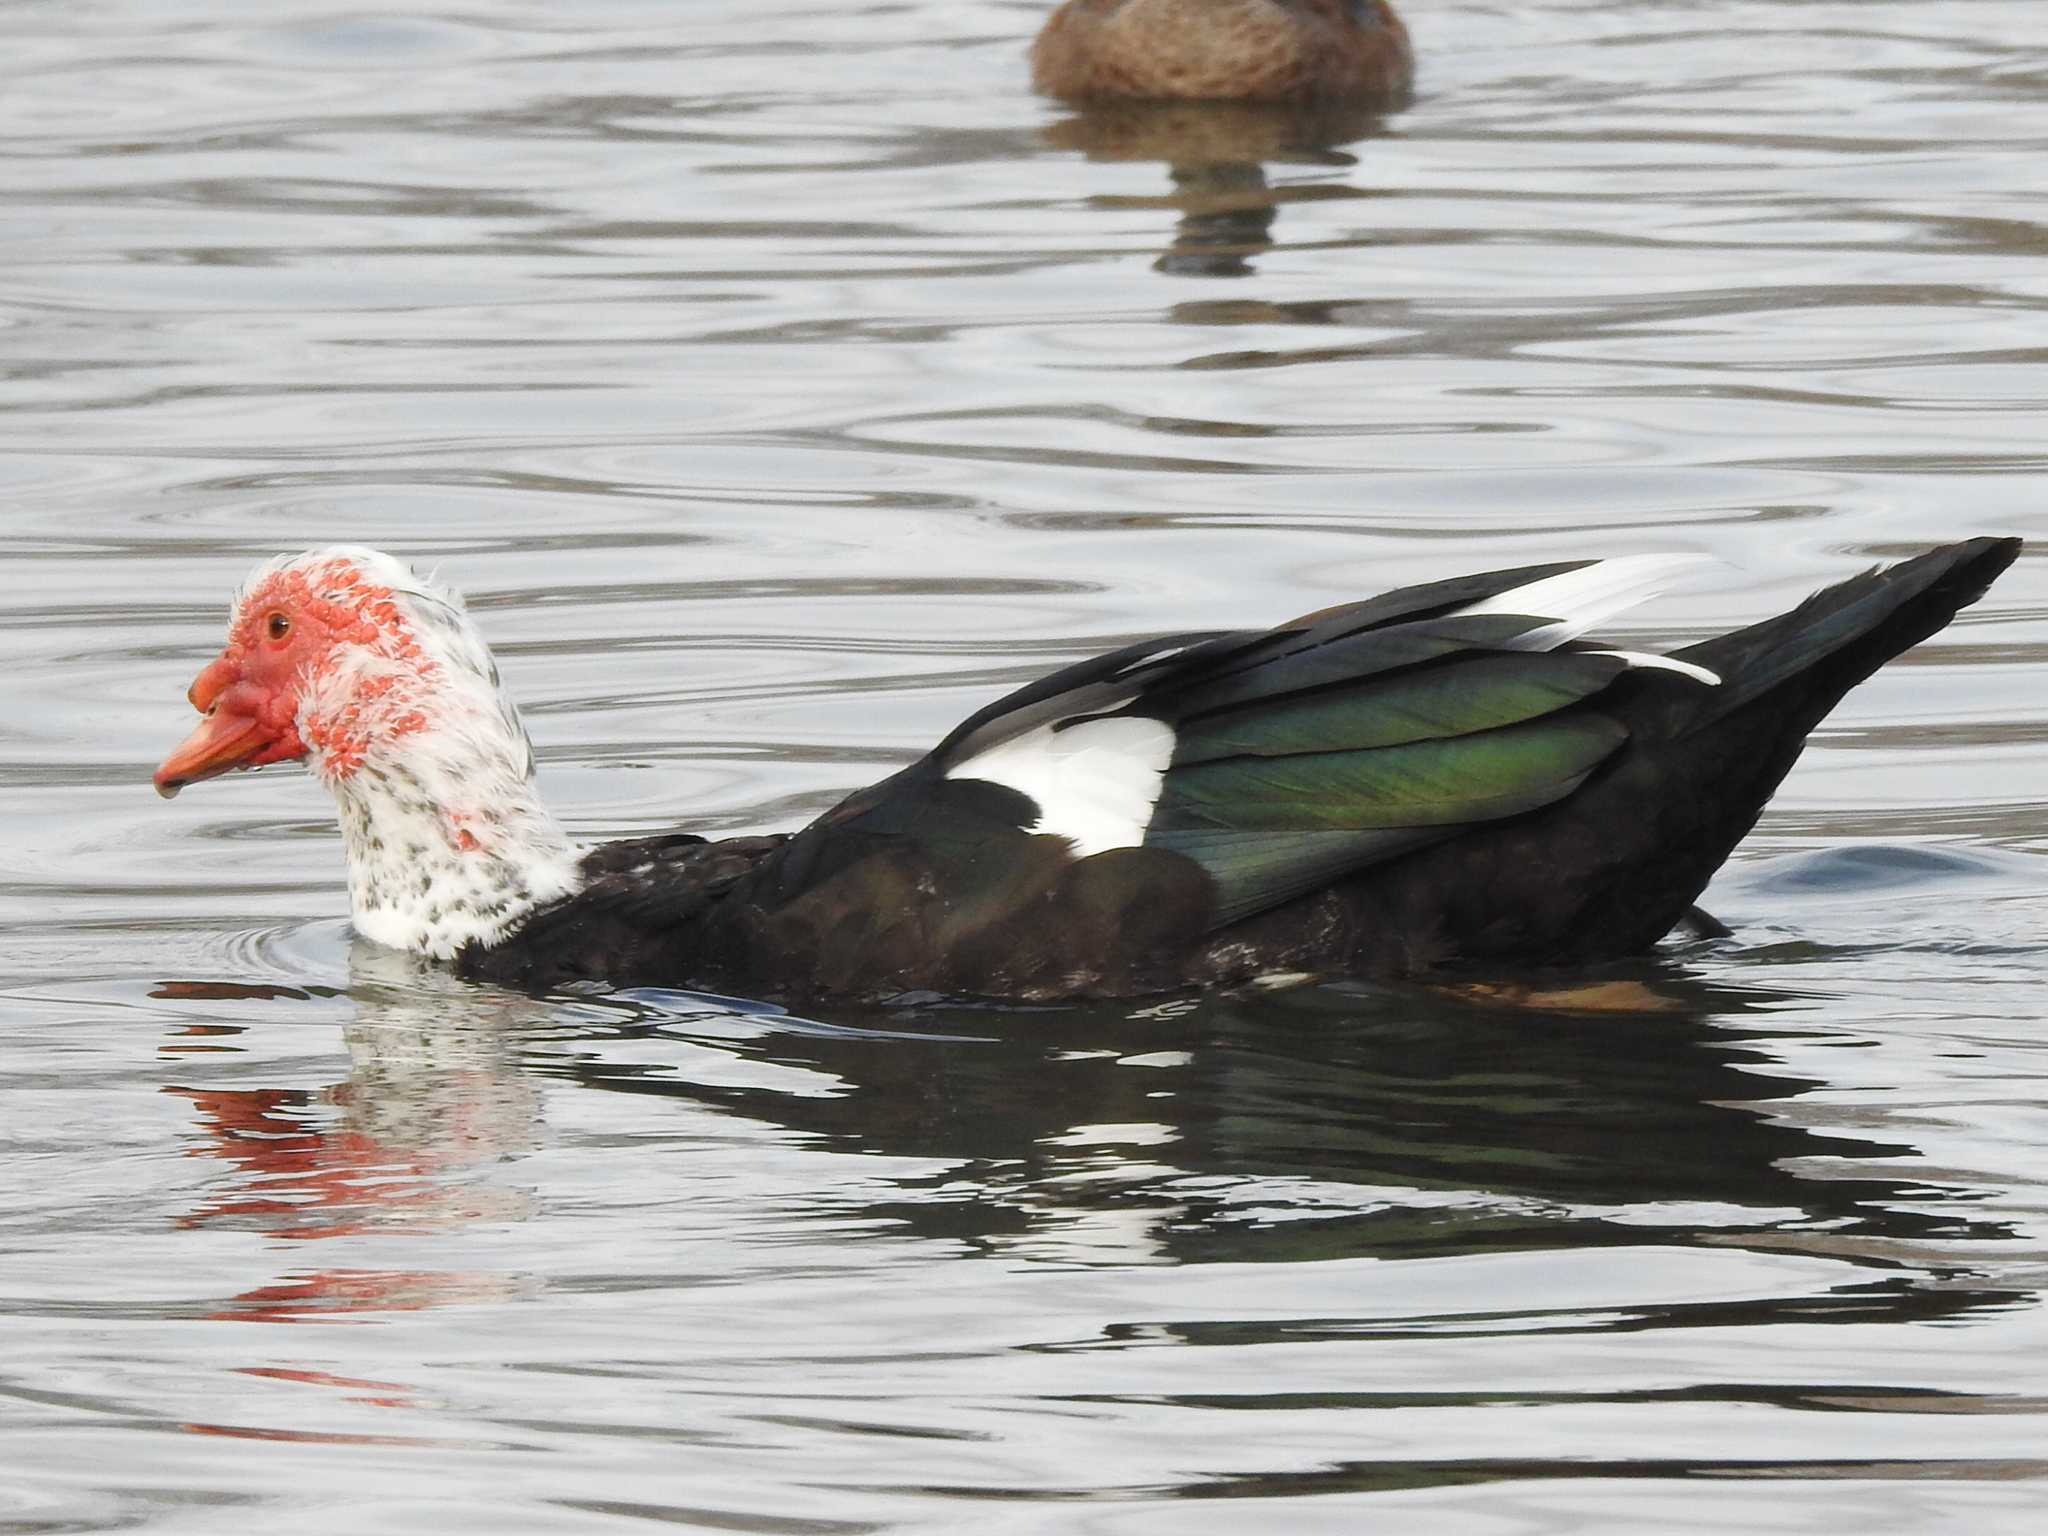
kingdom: Animalia
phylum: Chordata
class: Aves
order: Anseriformes
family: Anatidae
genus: Cairina
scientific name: Cairina moschata
